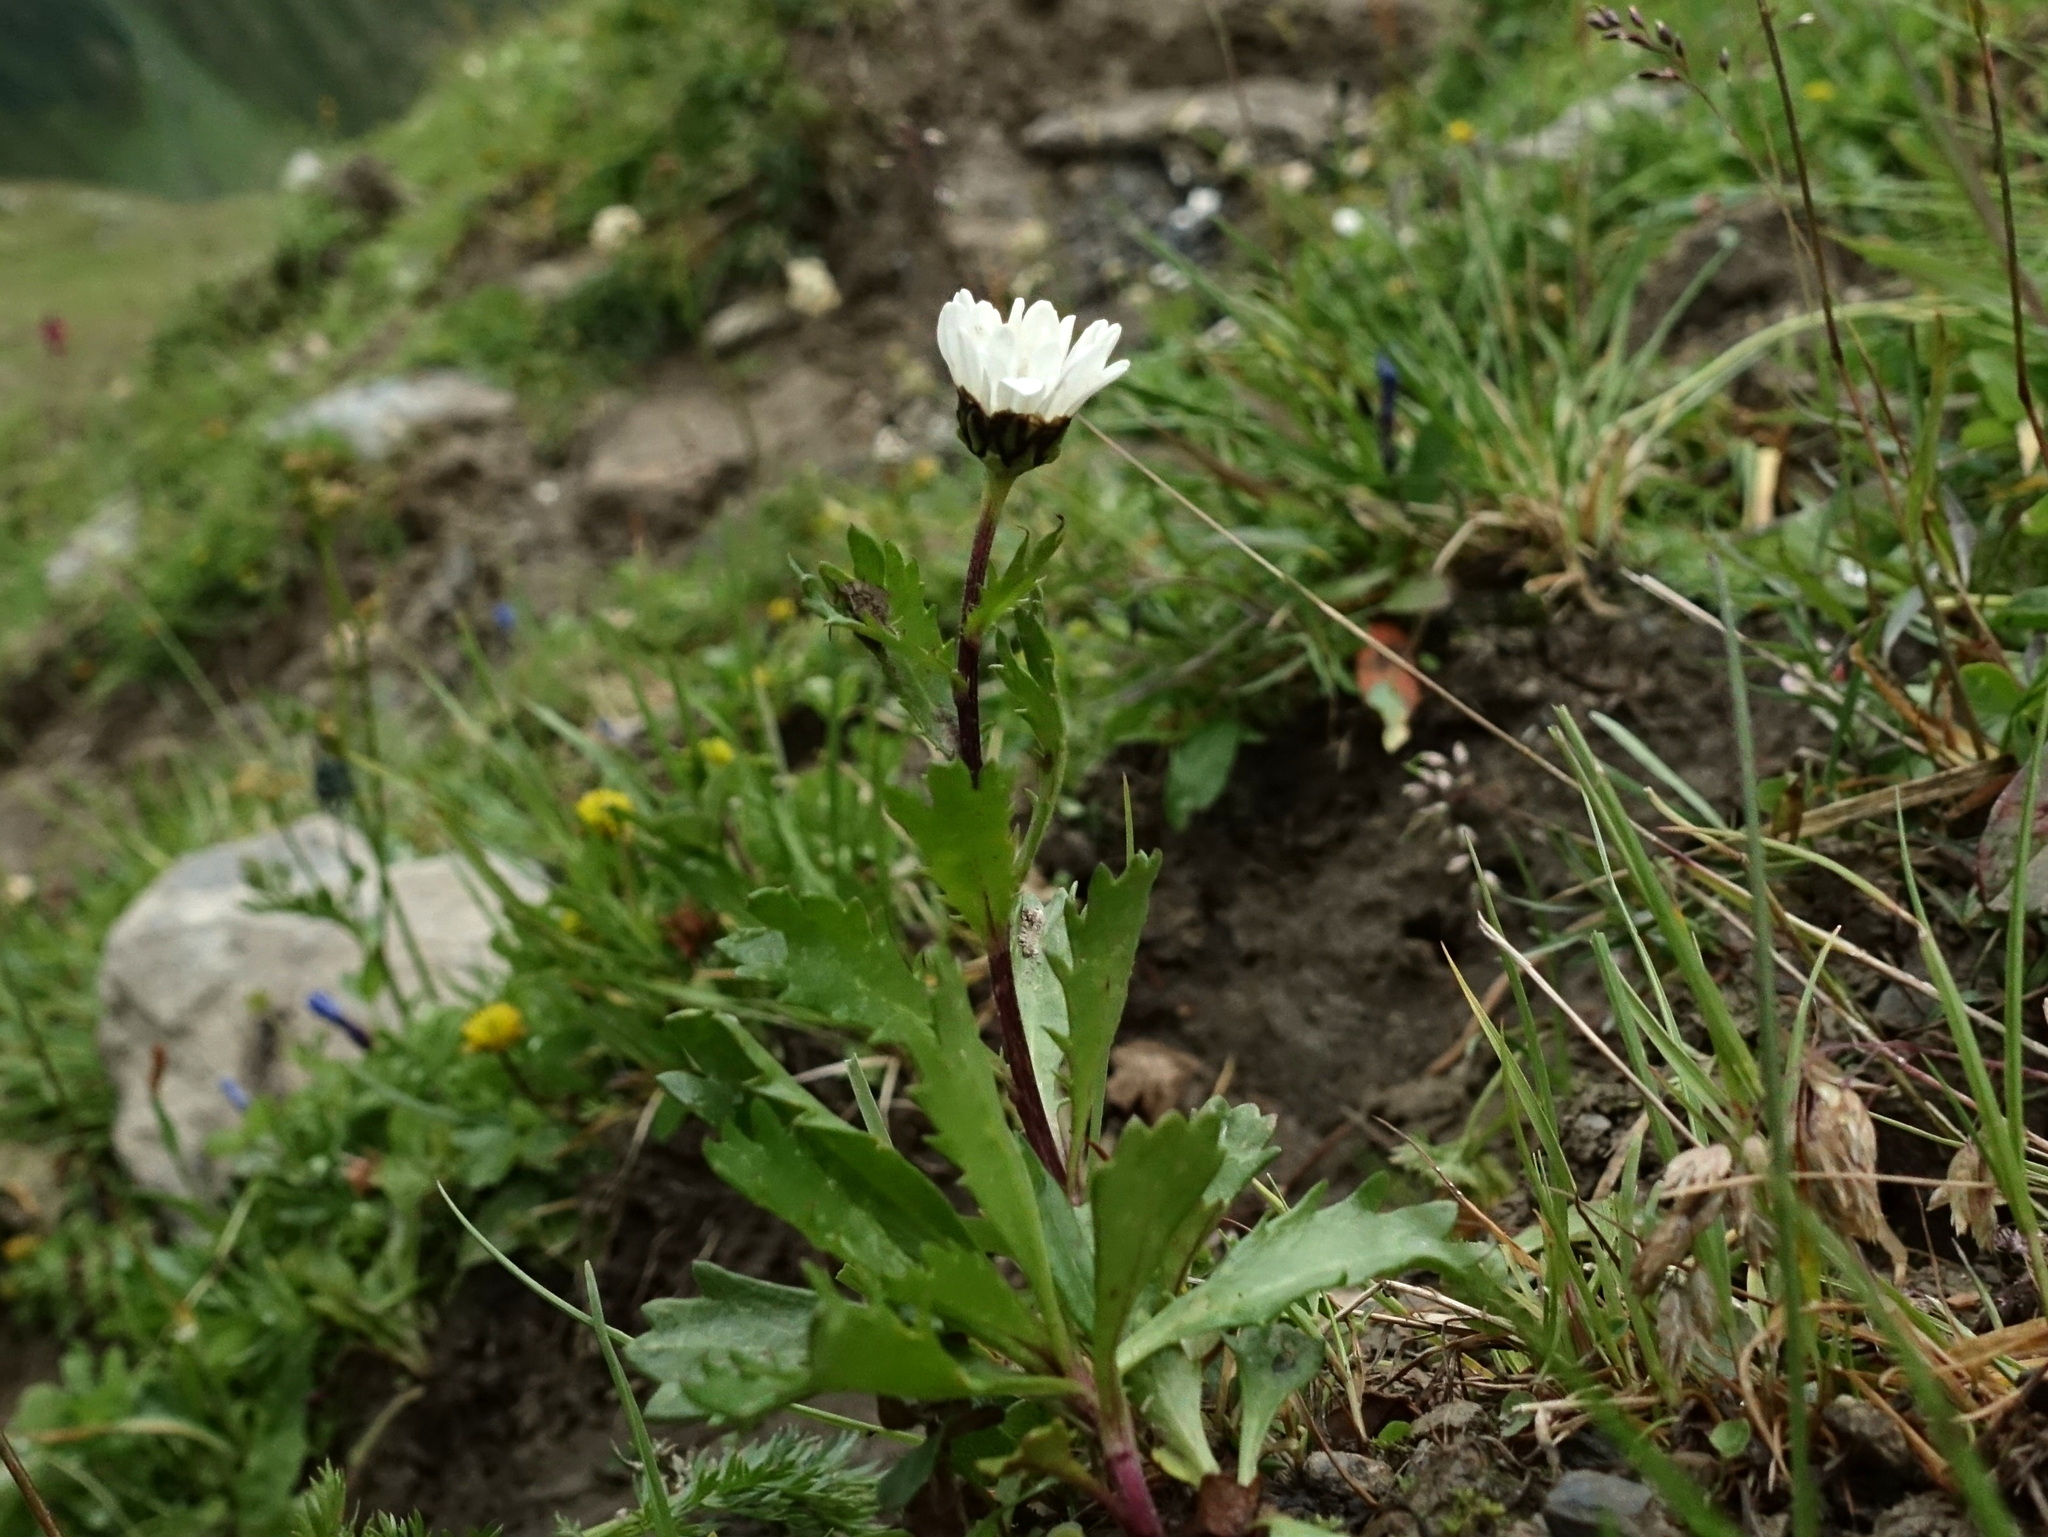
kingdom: Plantae
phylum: Tracheophyta
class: Magnoliopsida
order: Asterales
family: Asteraceae
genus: Leucanthemum
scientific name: Leucanthemum halleri
